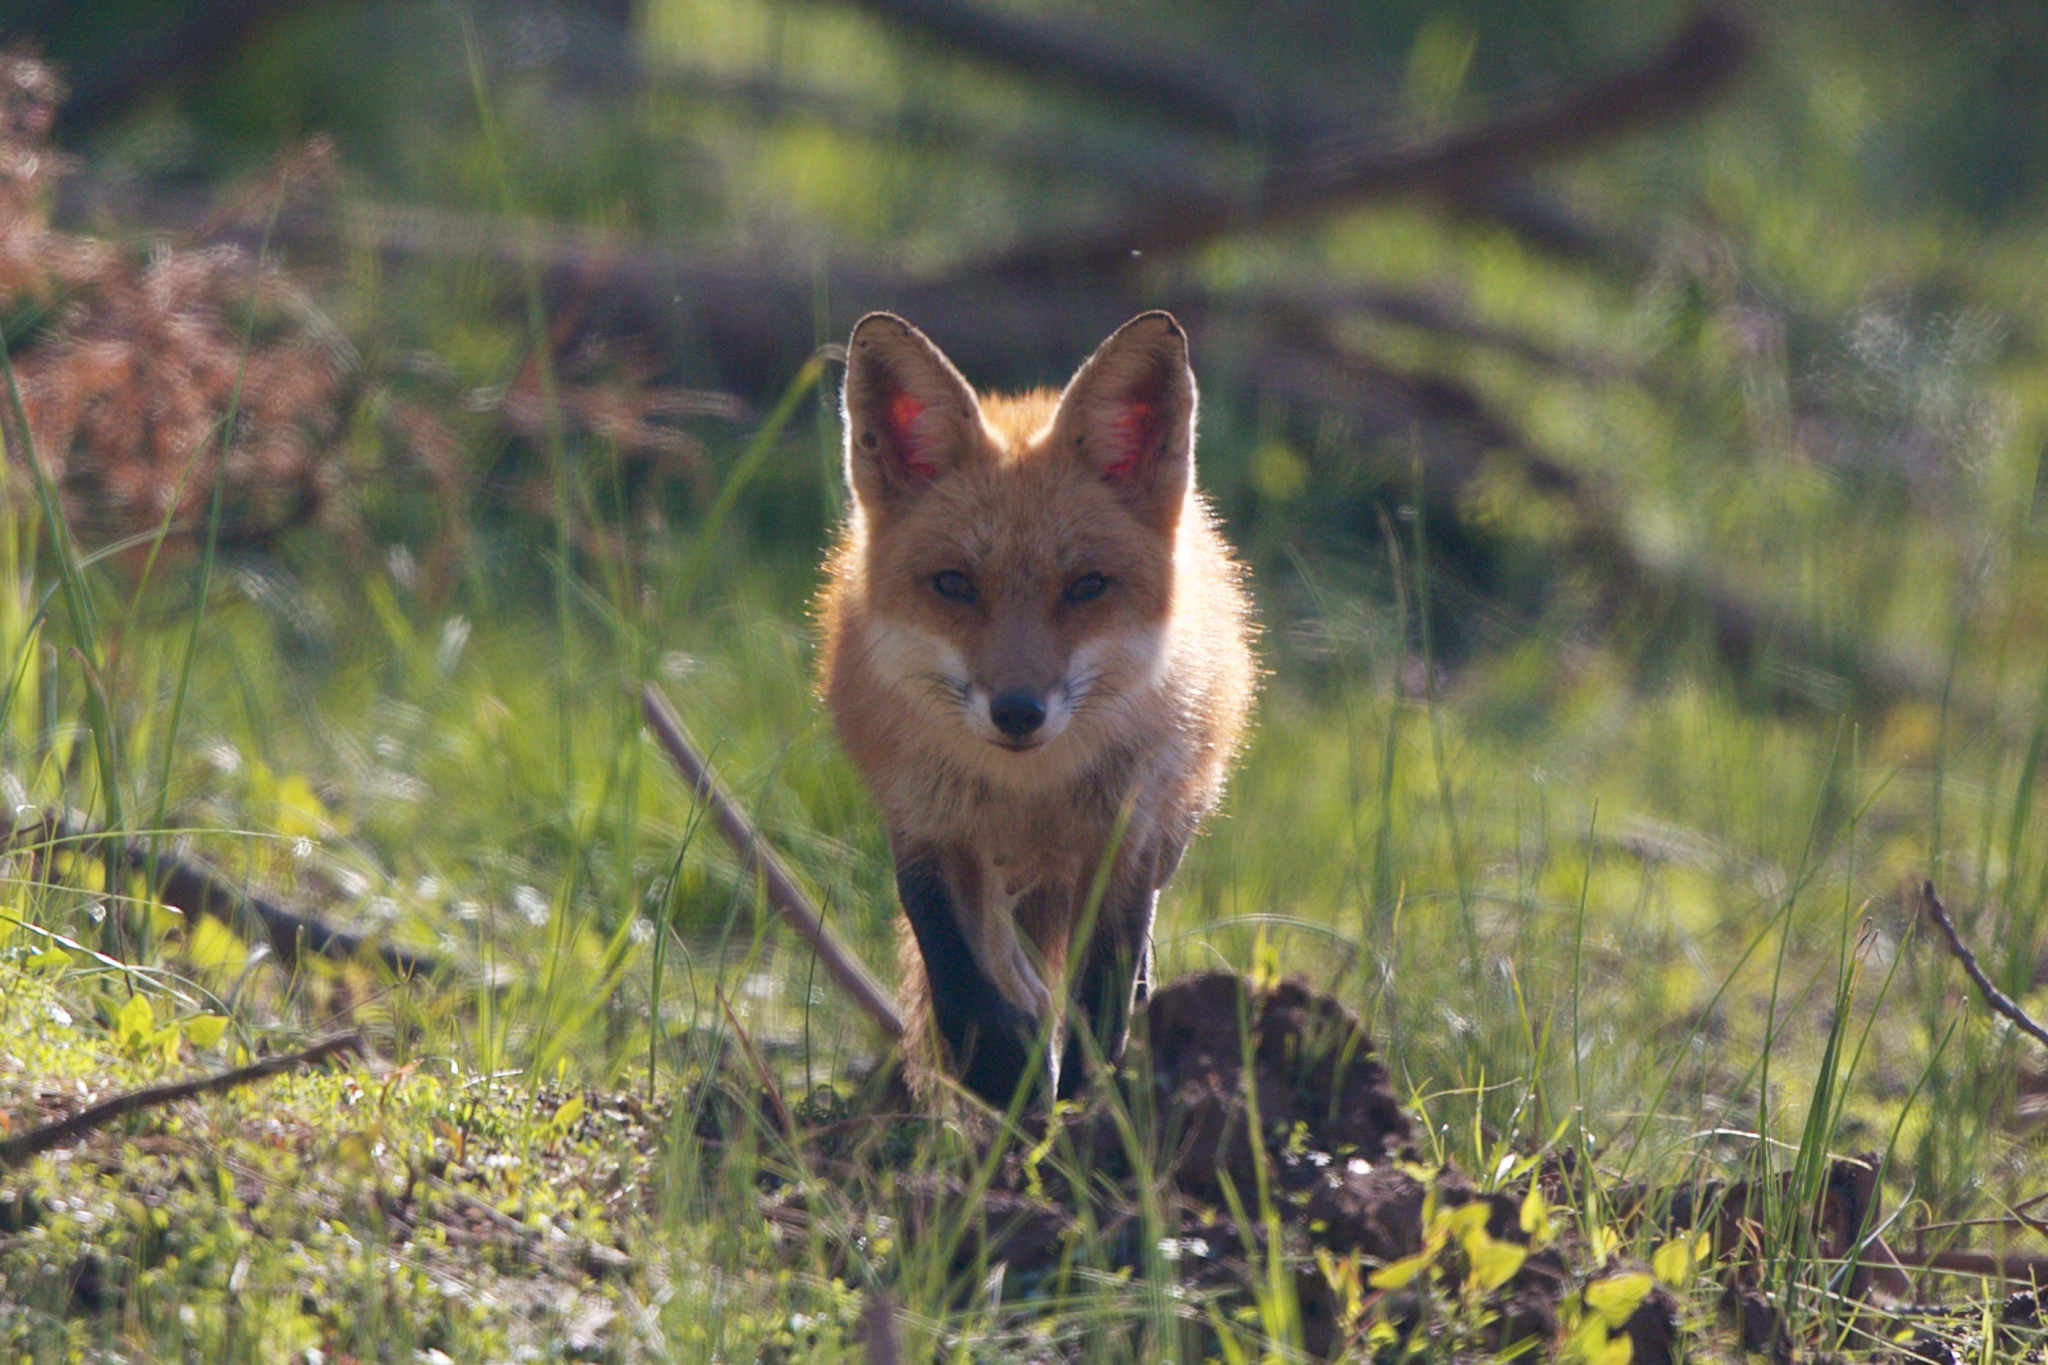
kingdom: Animalia
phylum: Chordata
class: Mammalia
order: Carnivora
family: Canidae
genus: Vulpes
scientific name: Vulpes vulpes
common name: Red fox
